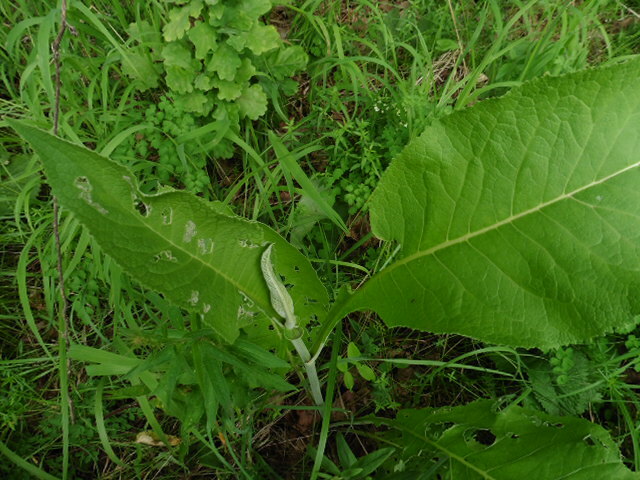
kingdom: Plantae
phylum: Tracheophyta
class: Magnoliopsida
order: Asterales
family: Asteraceae
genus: Inula
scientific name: Inula helenium
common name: Elecampane
